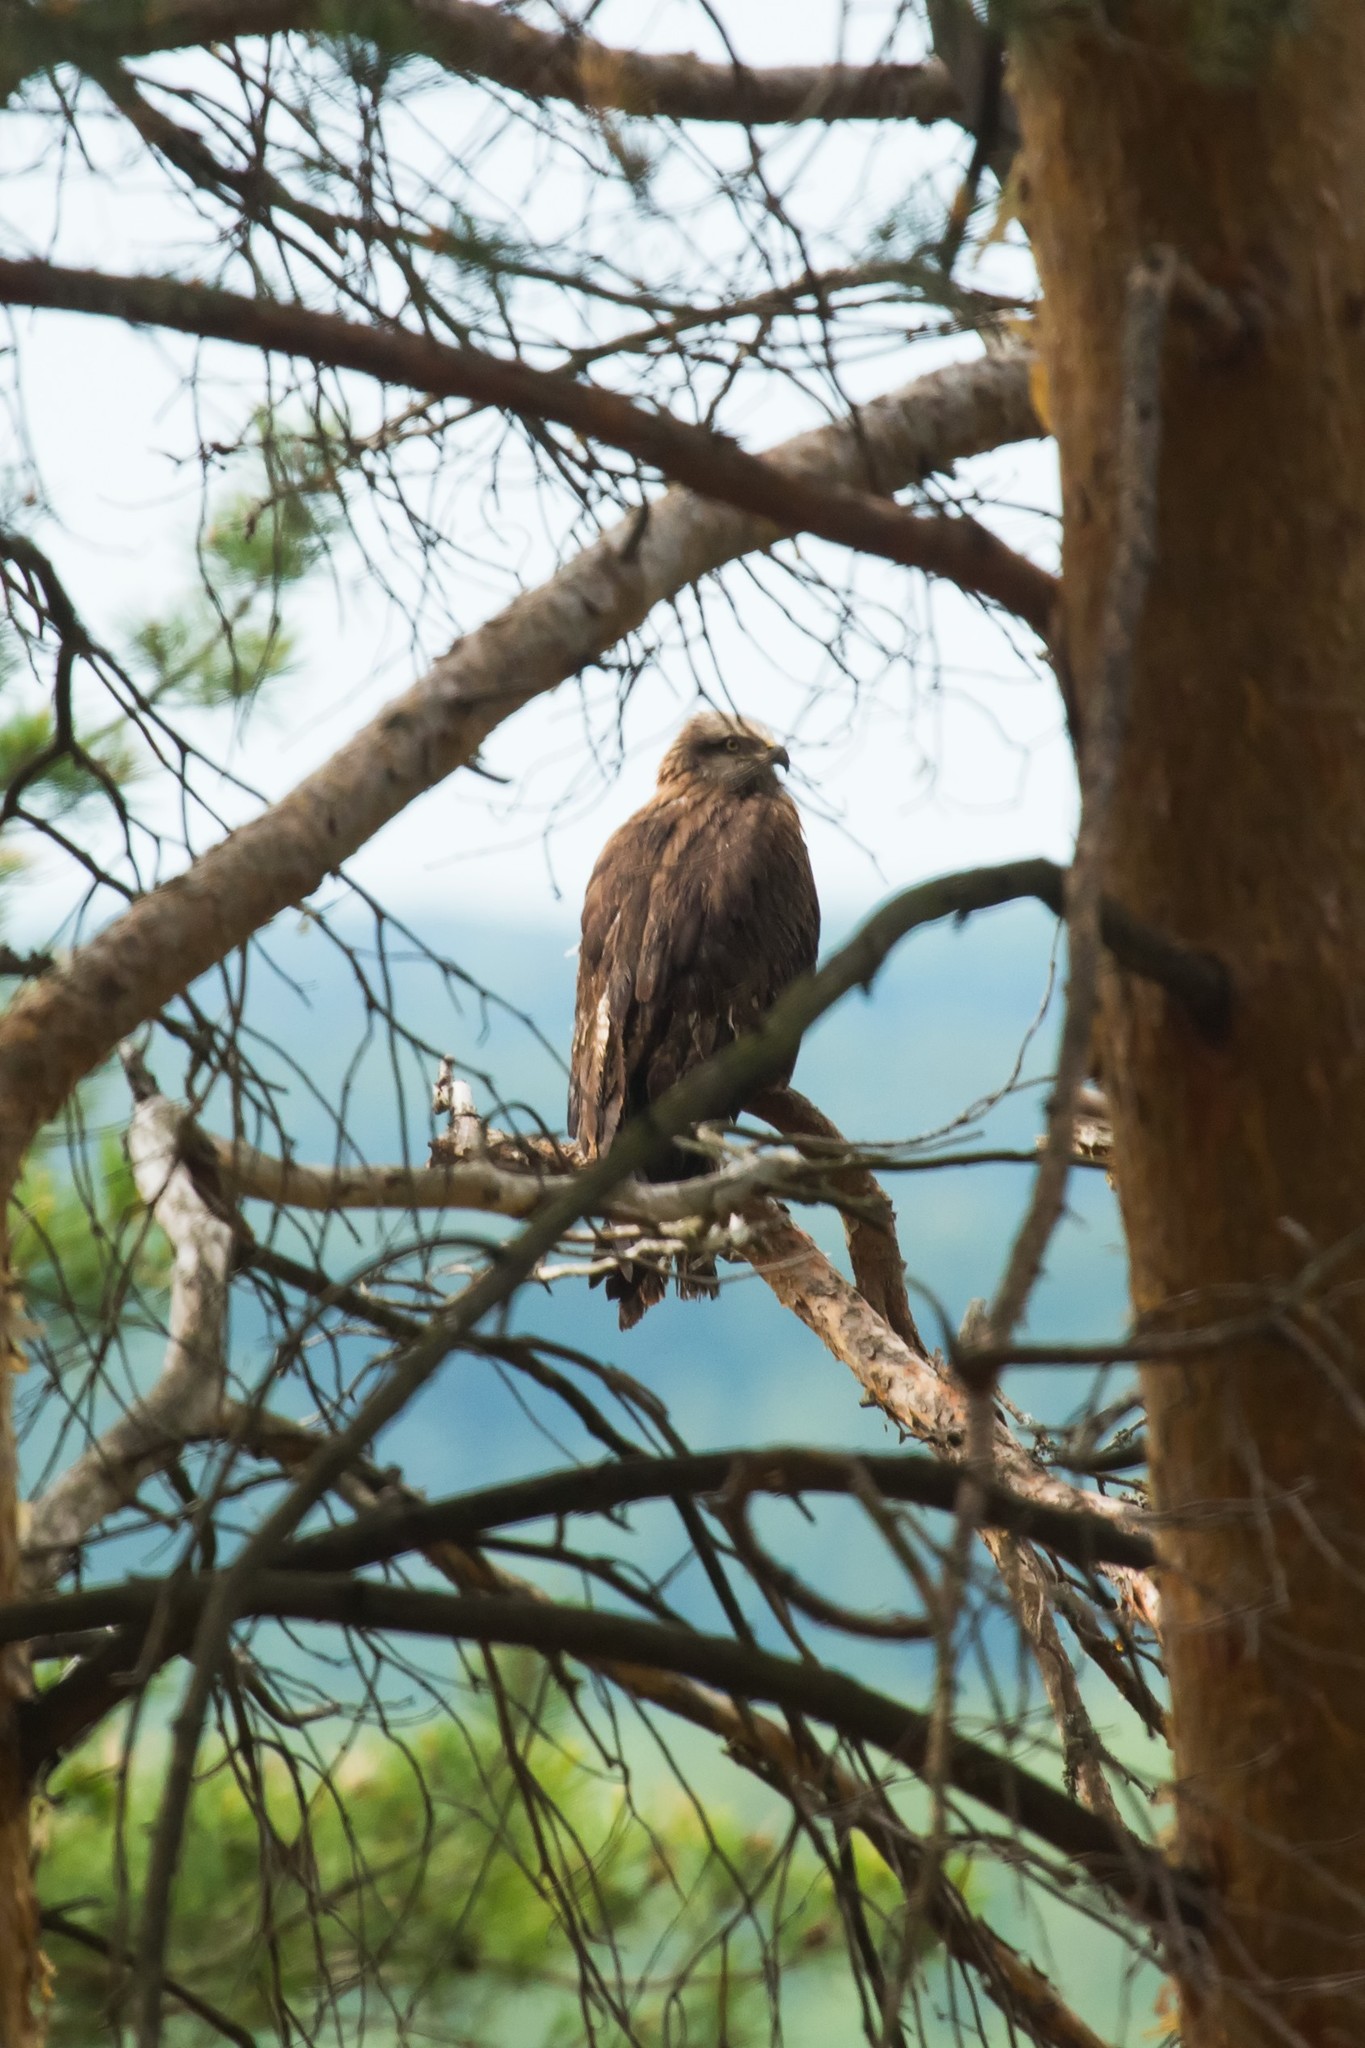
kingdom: Animalia
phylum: Chordata
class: Aves
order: Accipitriformes
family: Accipitridae
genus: Milvus
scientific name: Milvus migrans
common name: Black kite
